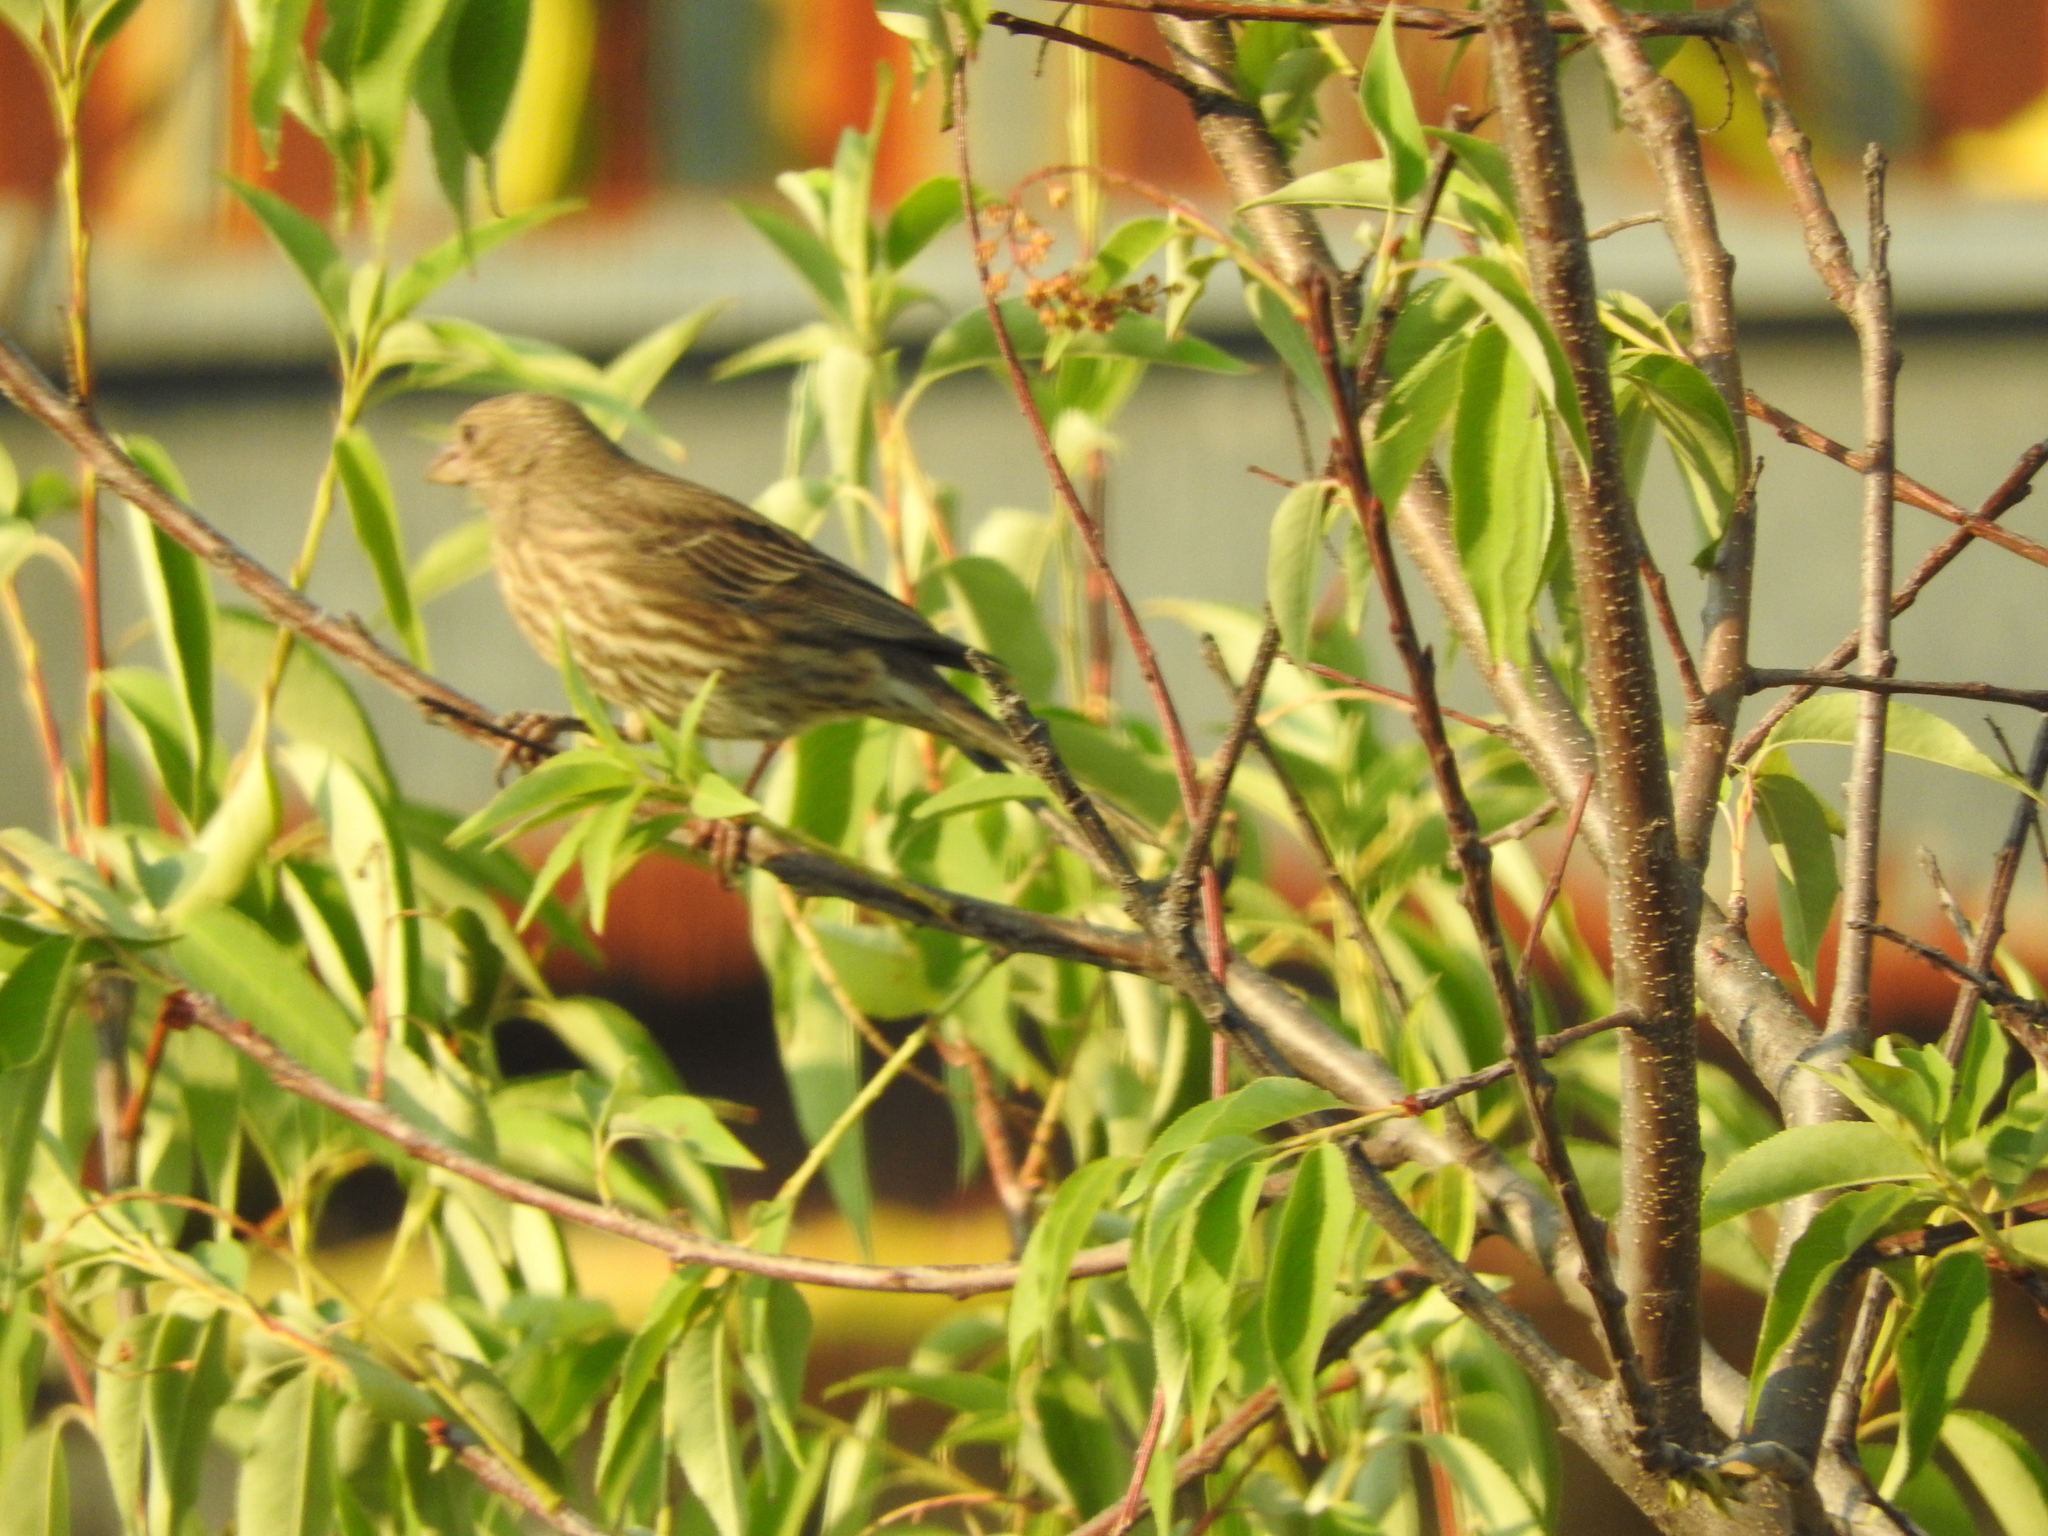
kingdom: Animalia
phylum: Chordata
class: Aves
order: Passeriformes
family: Fringillidae
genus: Haemorhous
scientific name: Haemorhous mexicanus
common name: House finch
